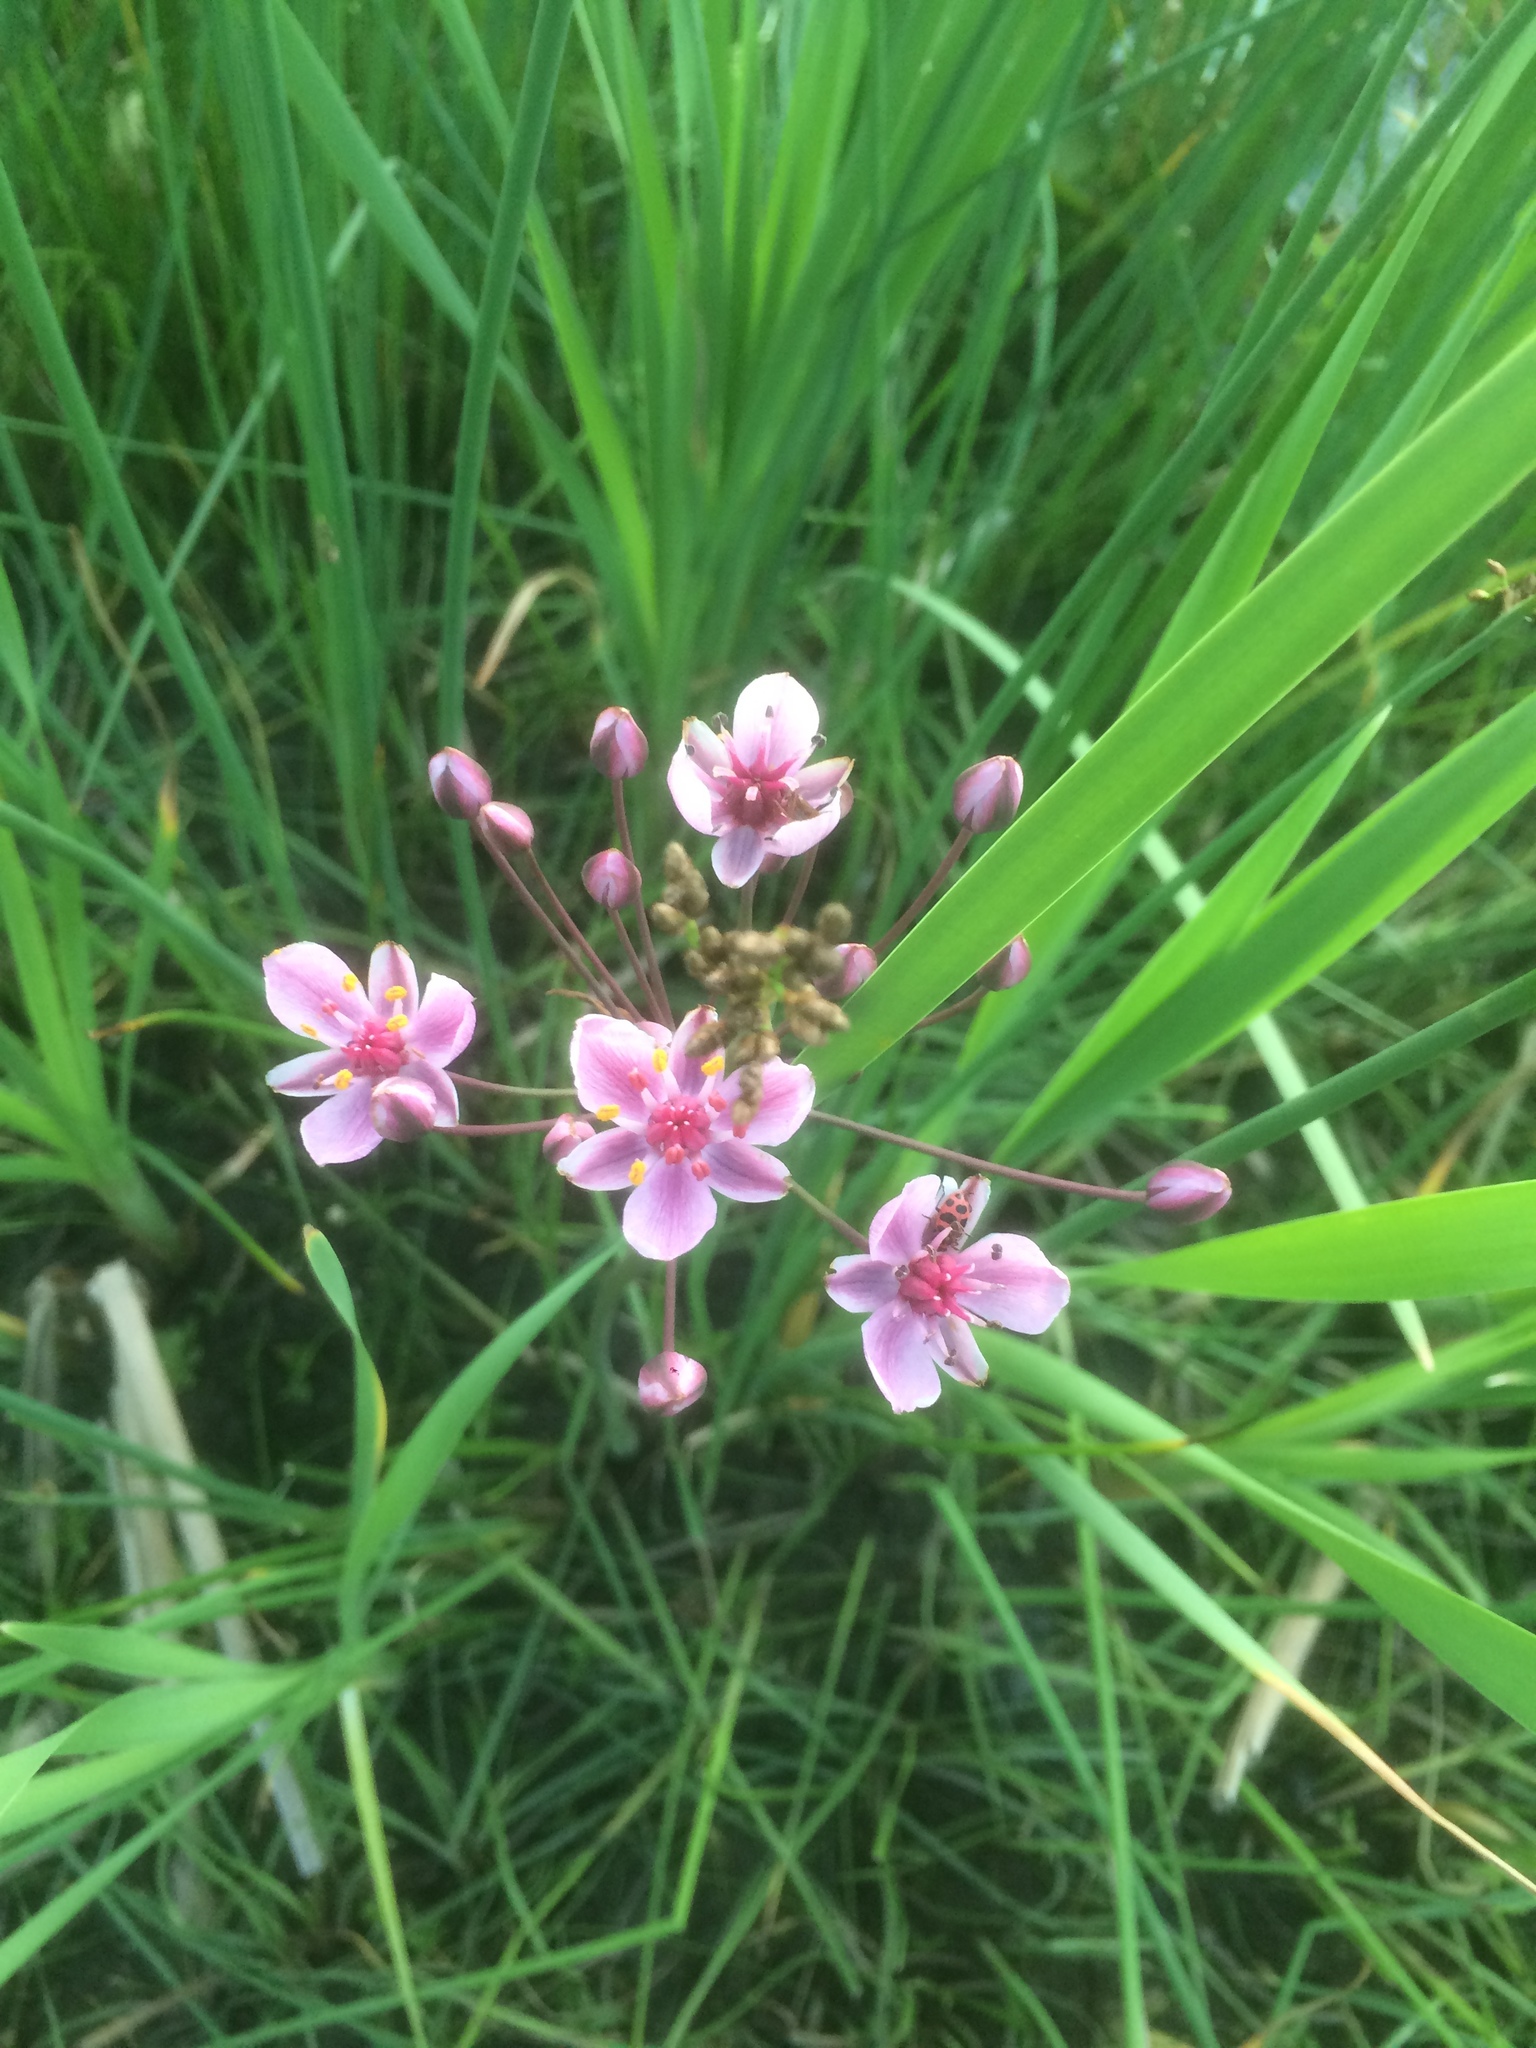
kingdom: Plantae
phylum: Tracheophyta
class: Liliopsida
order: Alismatales
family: Butomaceae
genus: Butomus
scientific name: Butomus umbellatus
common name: Flowering-rush
